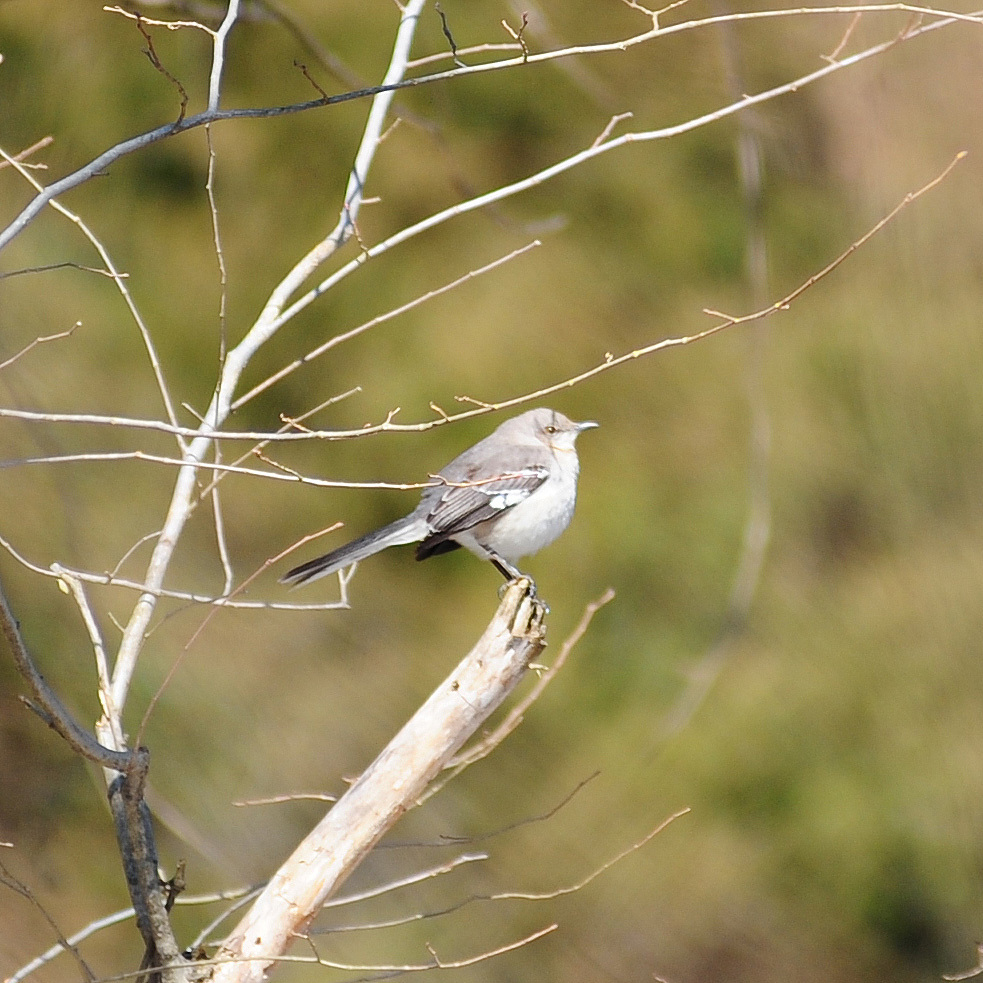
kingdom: Animalia
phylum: Chordata
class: Aves
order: Passeriformes
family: Mimidae
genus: Mimus
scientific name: Mimus polyglottos
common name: Northern mockingbird
